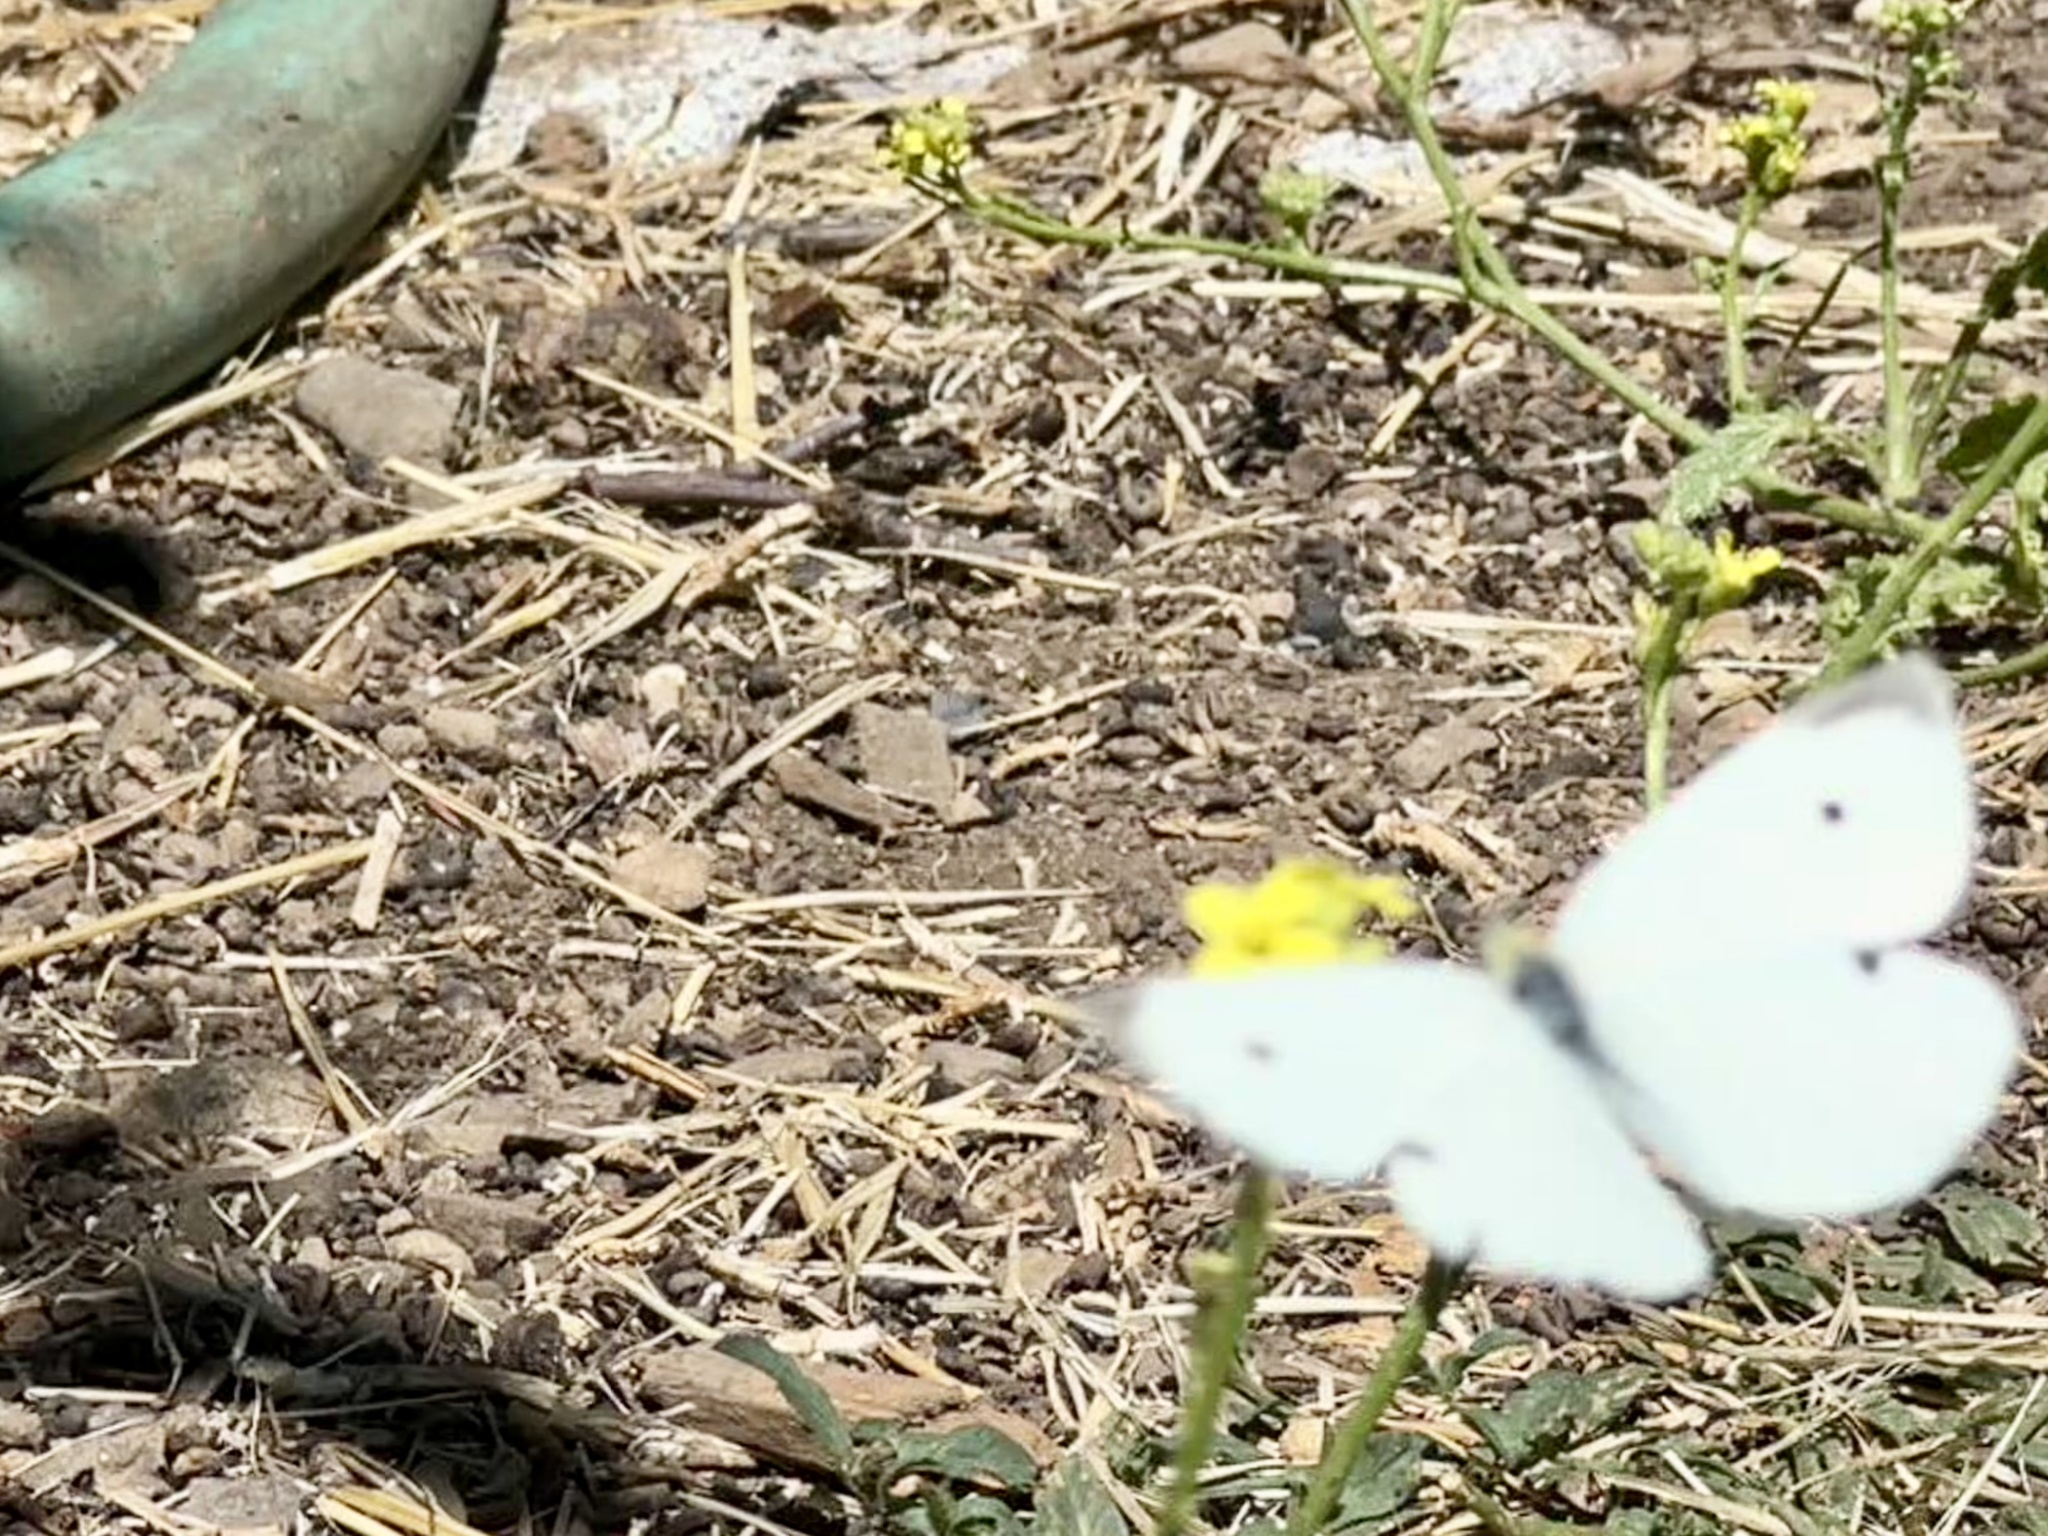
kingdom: Animalia
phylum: Arthropoda
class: Insecta
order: Lepidoptera
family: Pieridae
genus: Pieris
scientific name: Pieris rapae
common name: Small white
